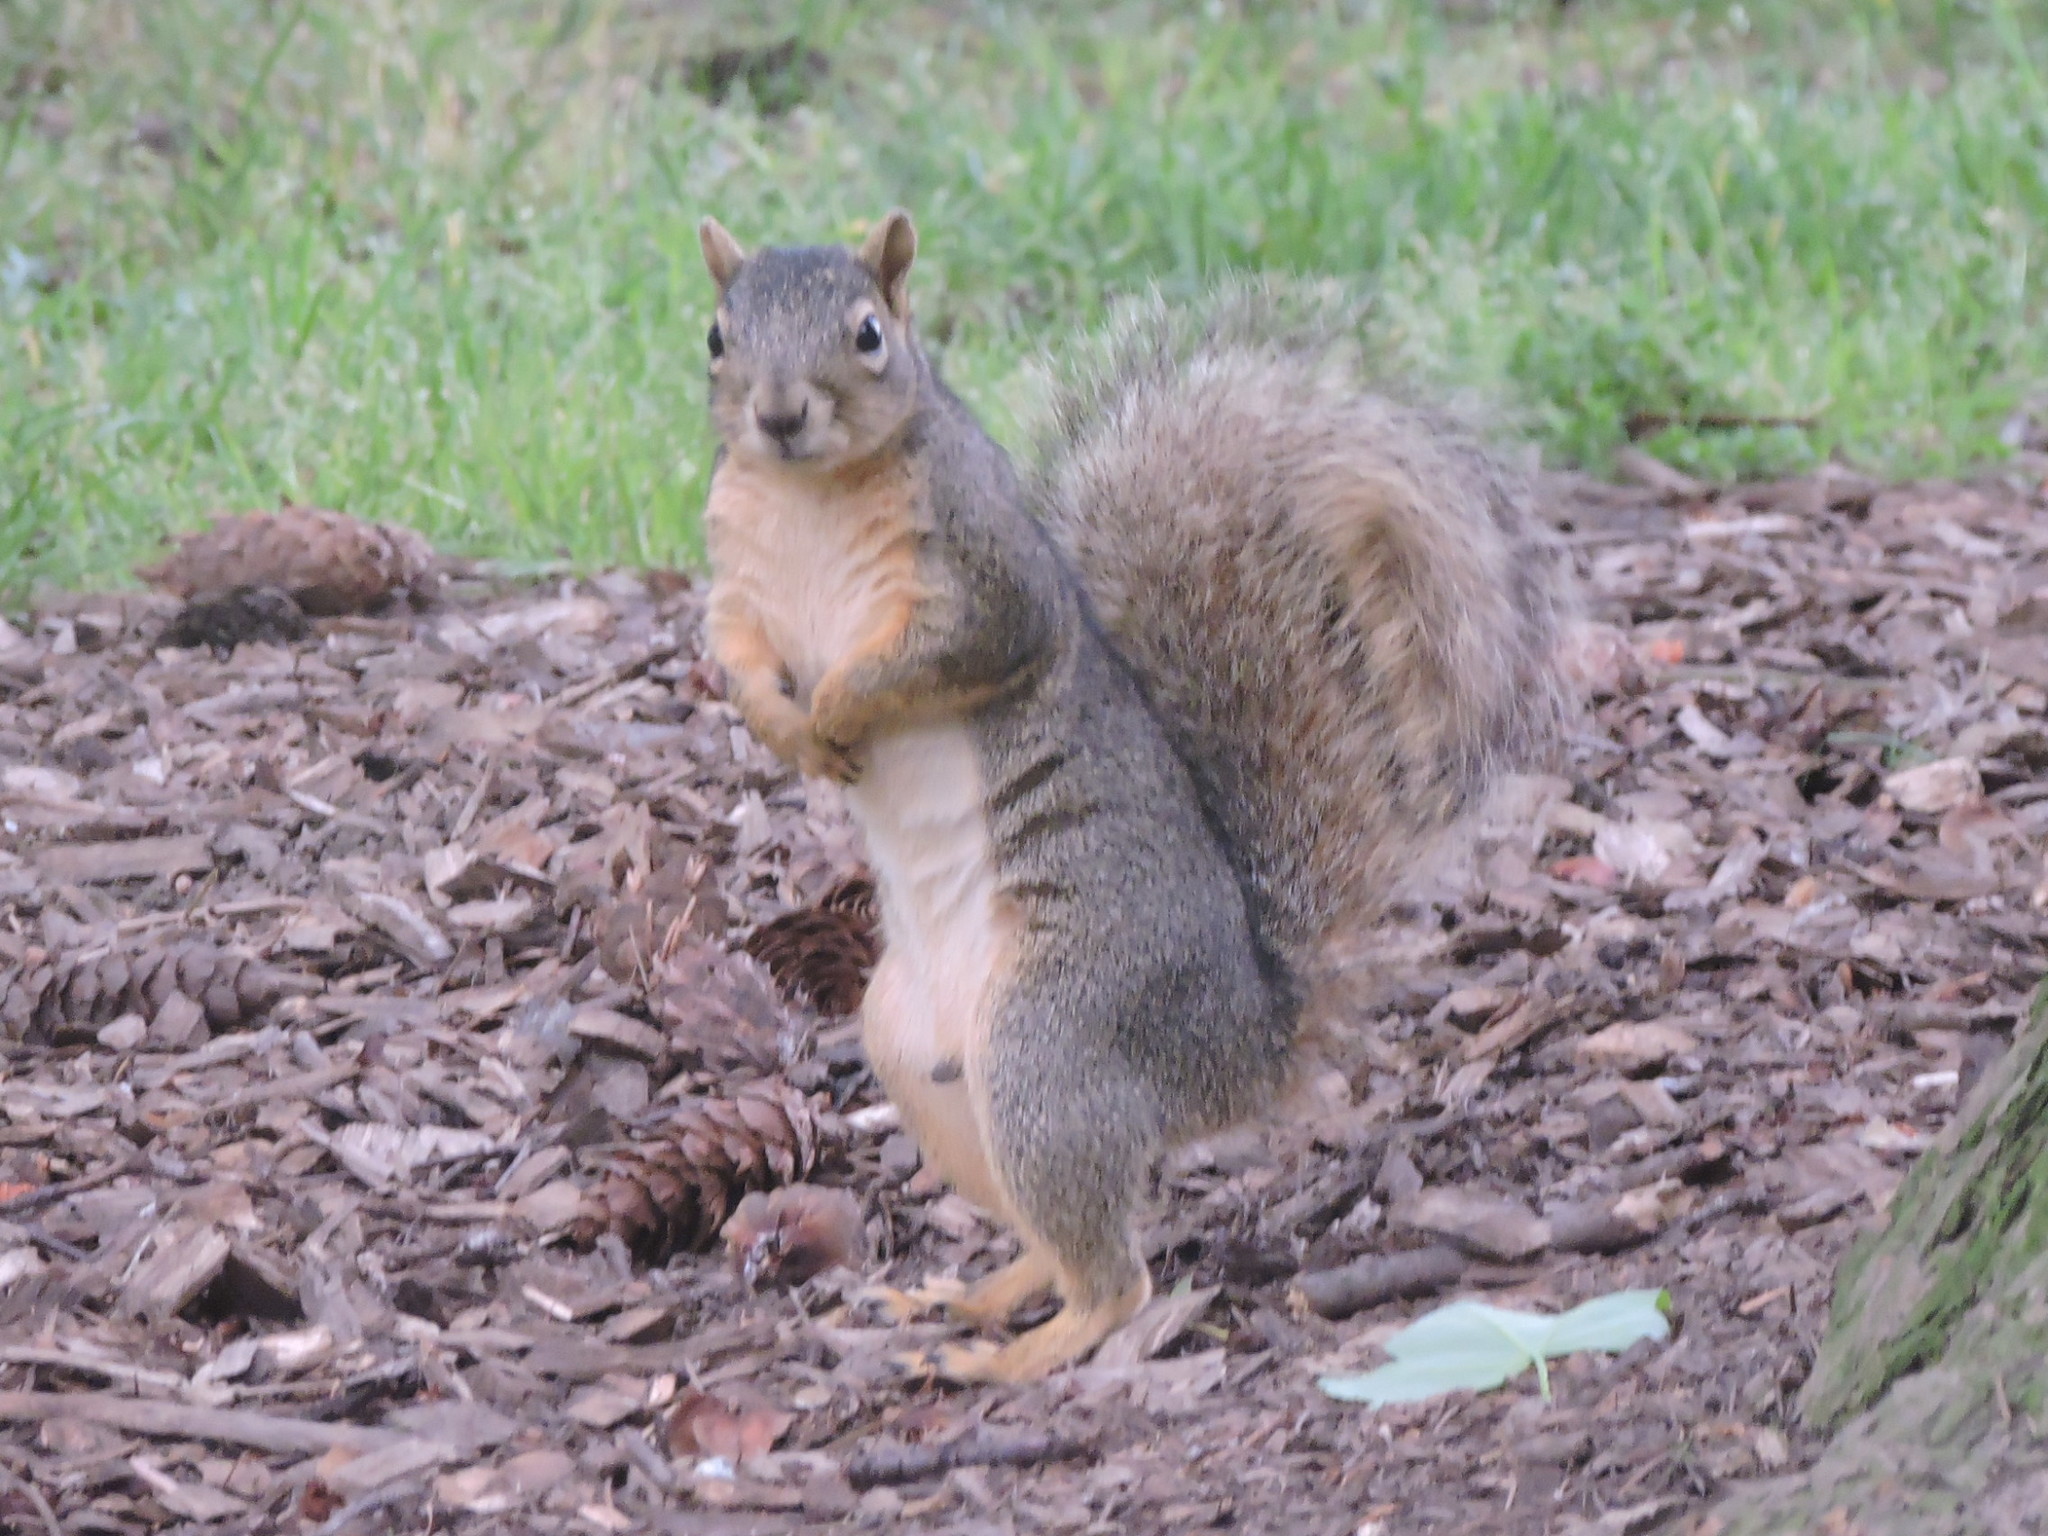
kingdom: Animalia
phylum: Chordata
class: Mammalia
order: Rodentia
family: Sciuridae
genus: Sciurus
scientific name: Sciurus niger
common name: Fox squirrel
